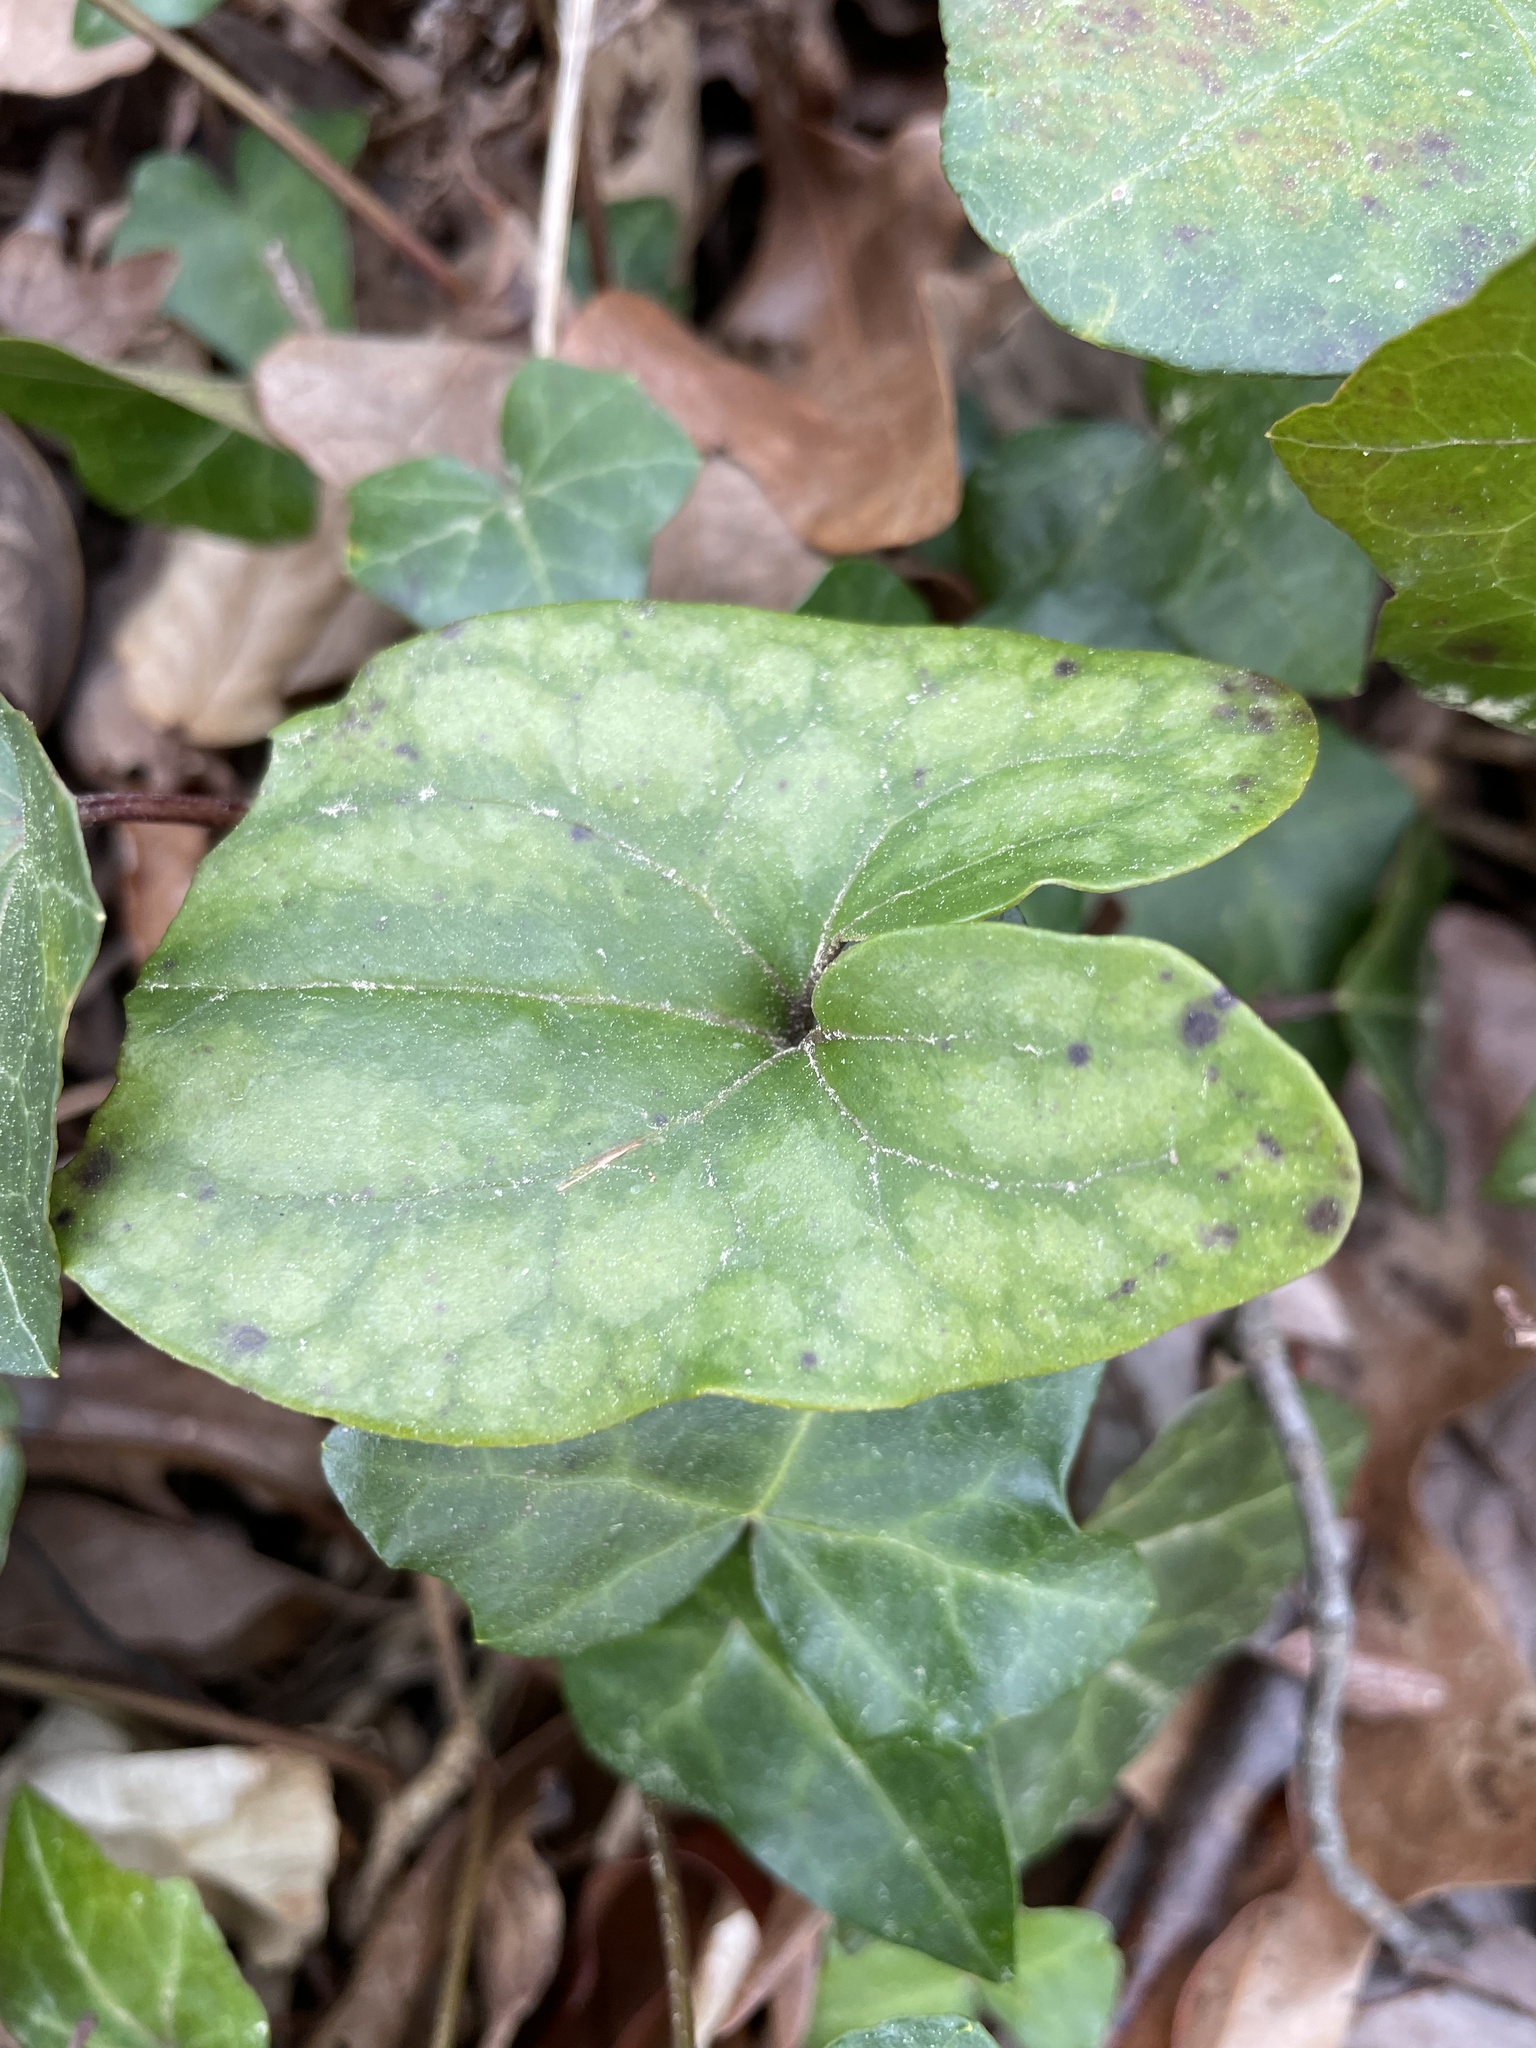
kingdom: Plantae
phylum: Tracheophyta
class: Magnoliopsida
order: Piperales
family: Aristolochiaceae
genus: Hexastylis
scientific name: Hexastylis arifolia
